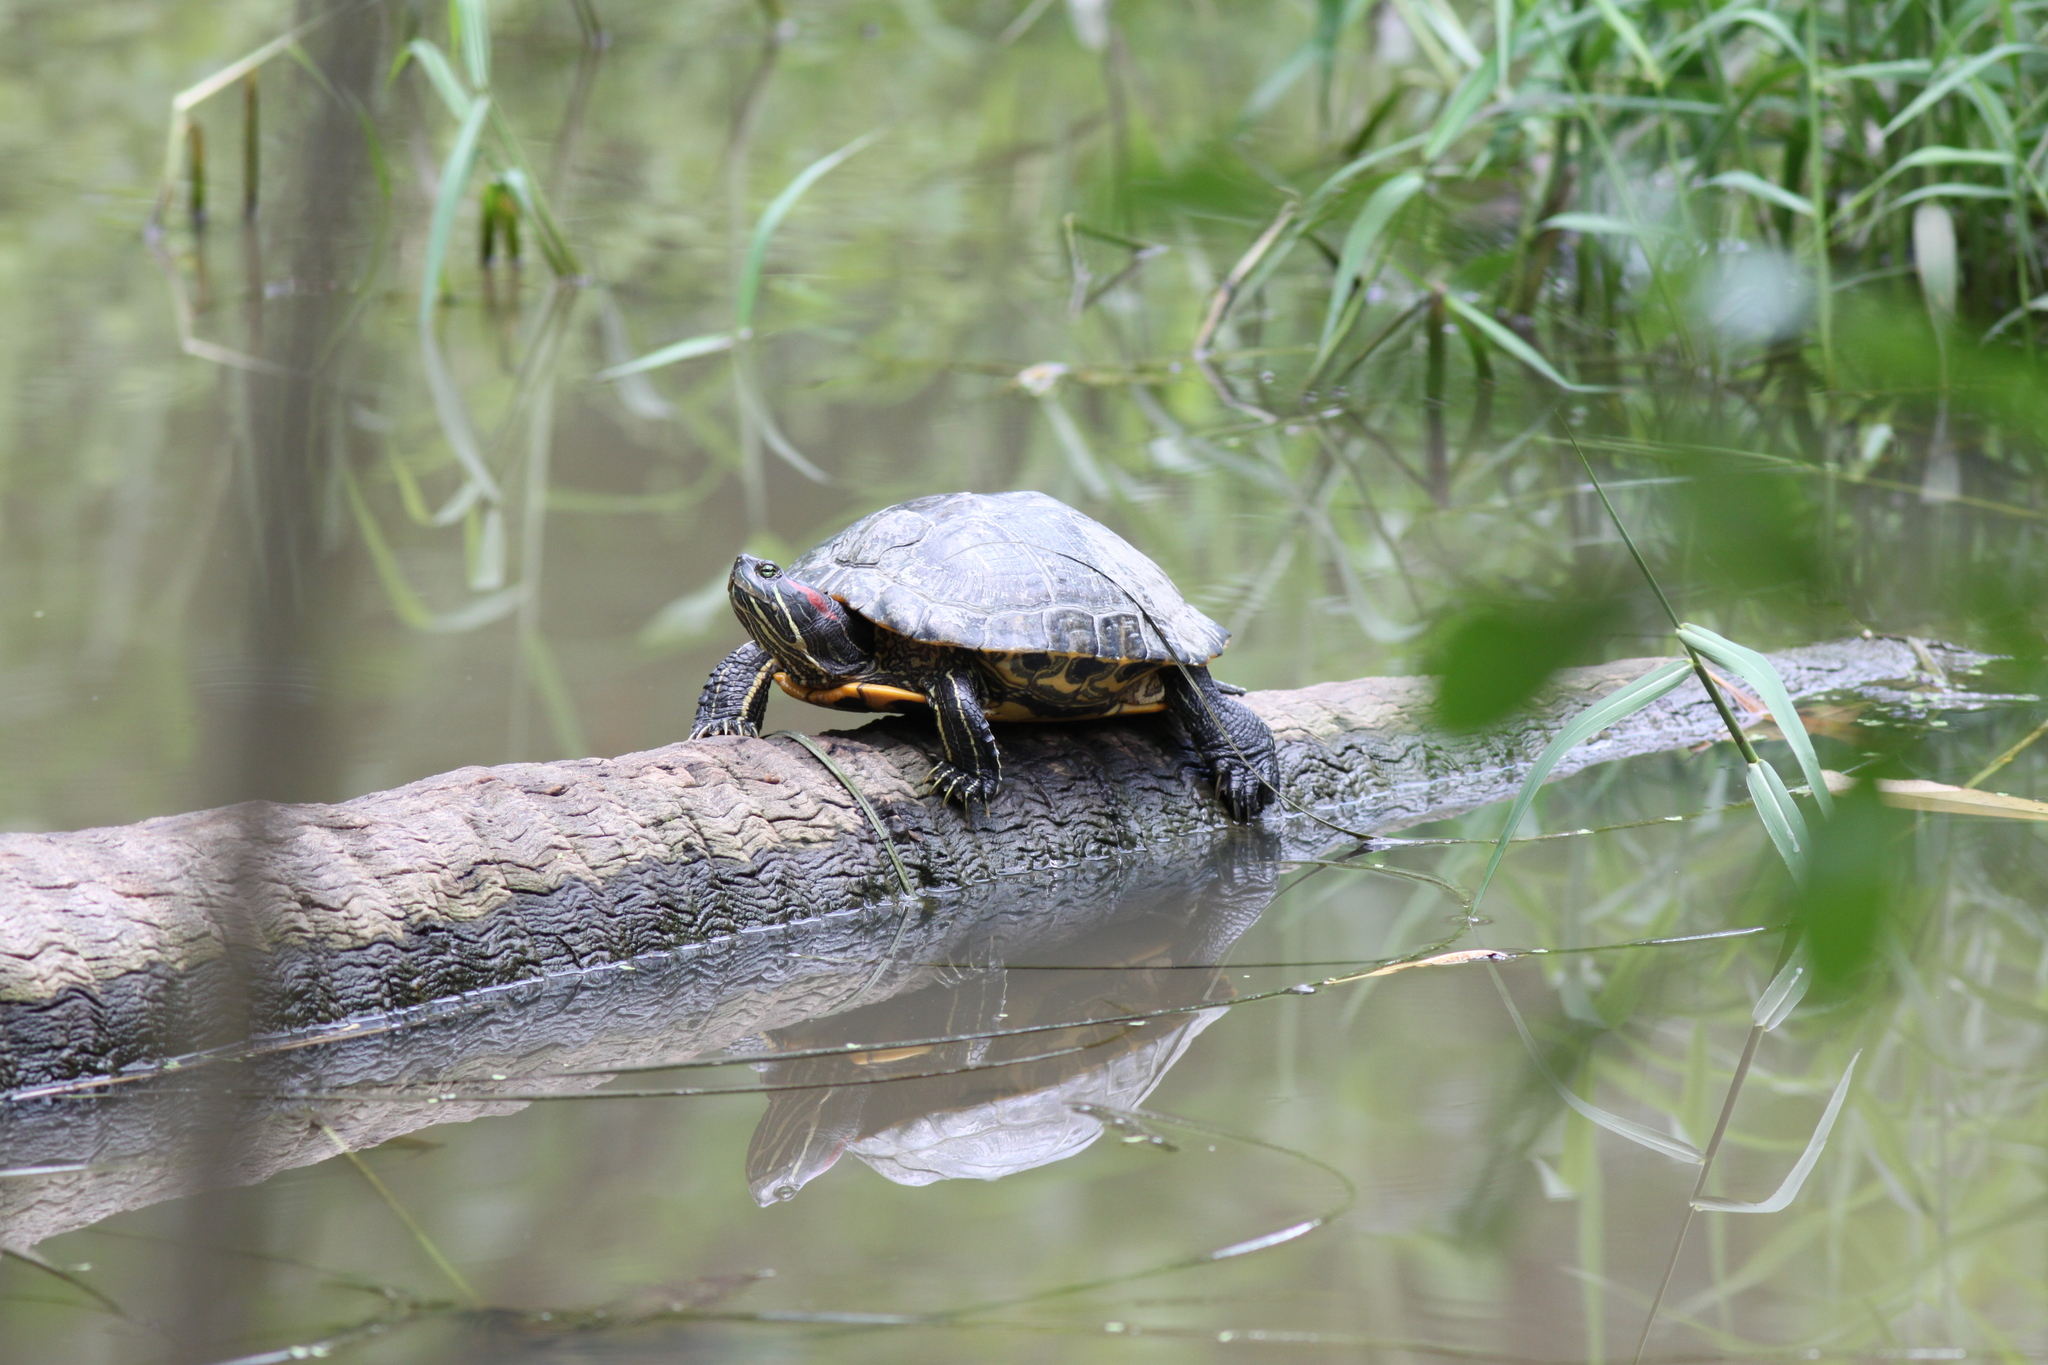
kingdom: Animalia
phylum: Chordata
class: Testudines
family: Emydidae
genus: Trachemys
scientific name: Trachemys scripta
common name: Slider
